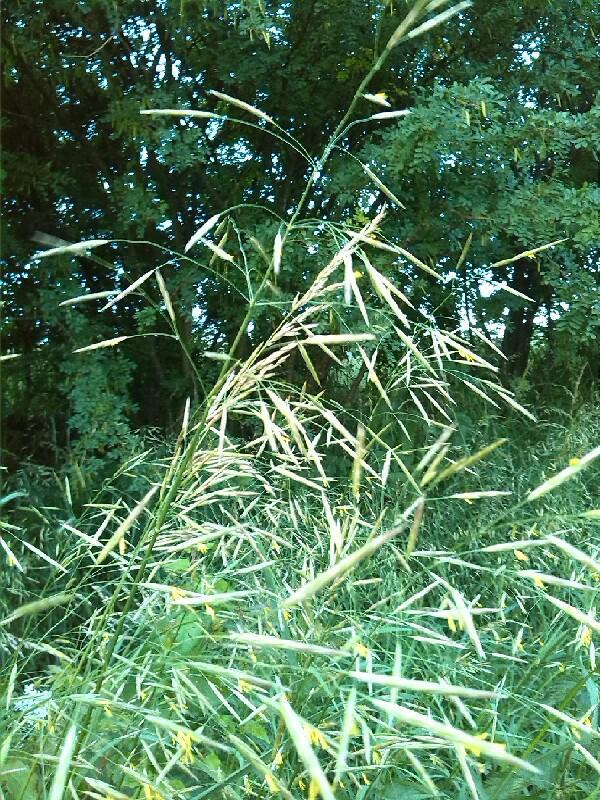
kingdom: Plantae
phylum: Tracheophyta
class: Liliopsida
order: Poales
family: Poaceae
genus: Bromus
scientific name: Bromus inermis
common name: Smooth brome
